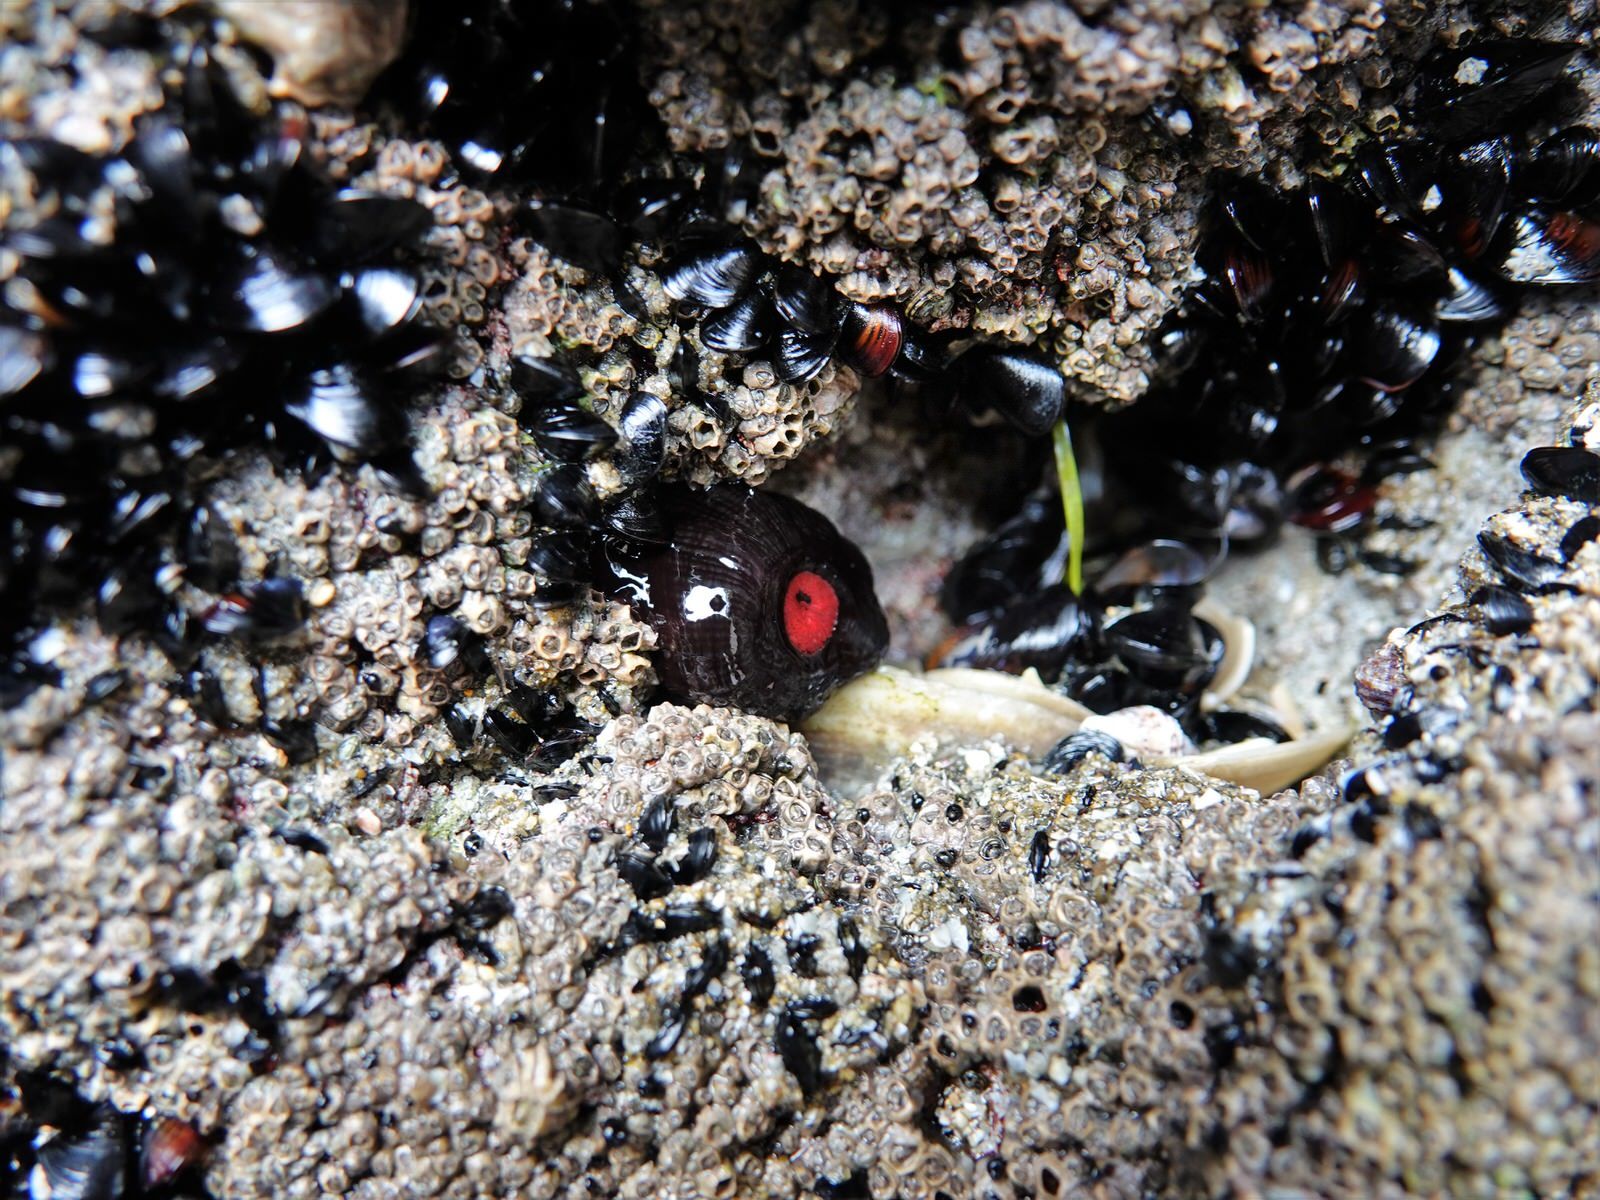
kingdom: Animalia
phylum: Cnidaria
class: Anthozoa
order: Actiniaria
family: Actiniidae
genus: Actinia
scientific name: Actinia tenebrosa
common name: Waratah anemone
